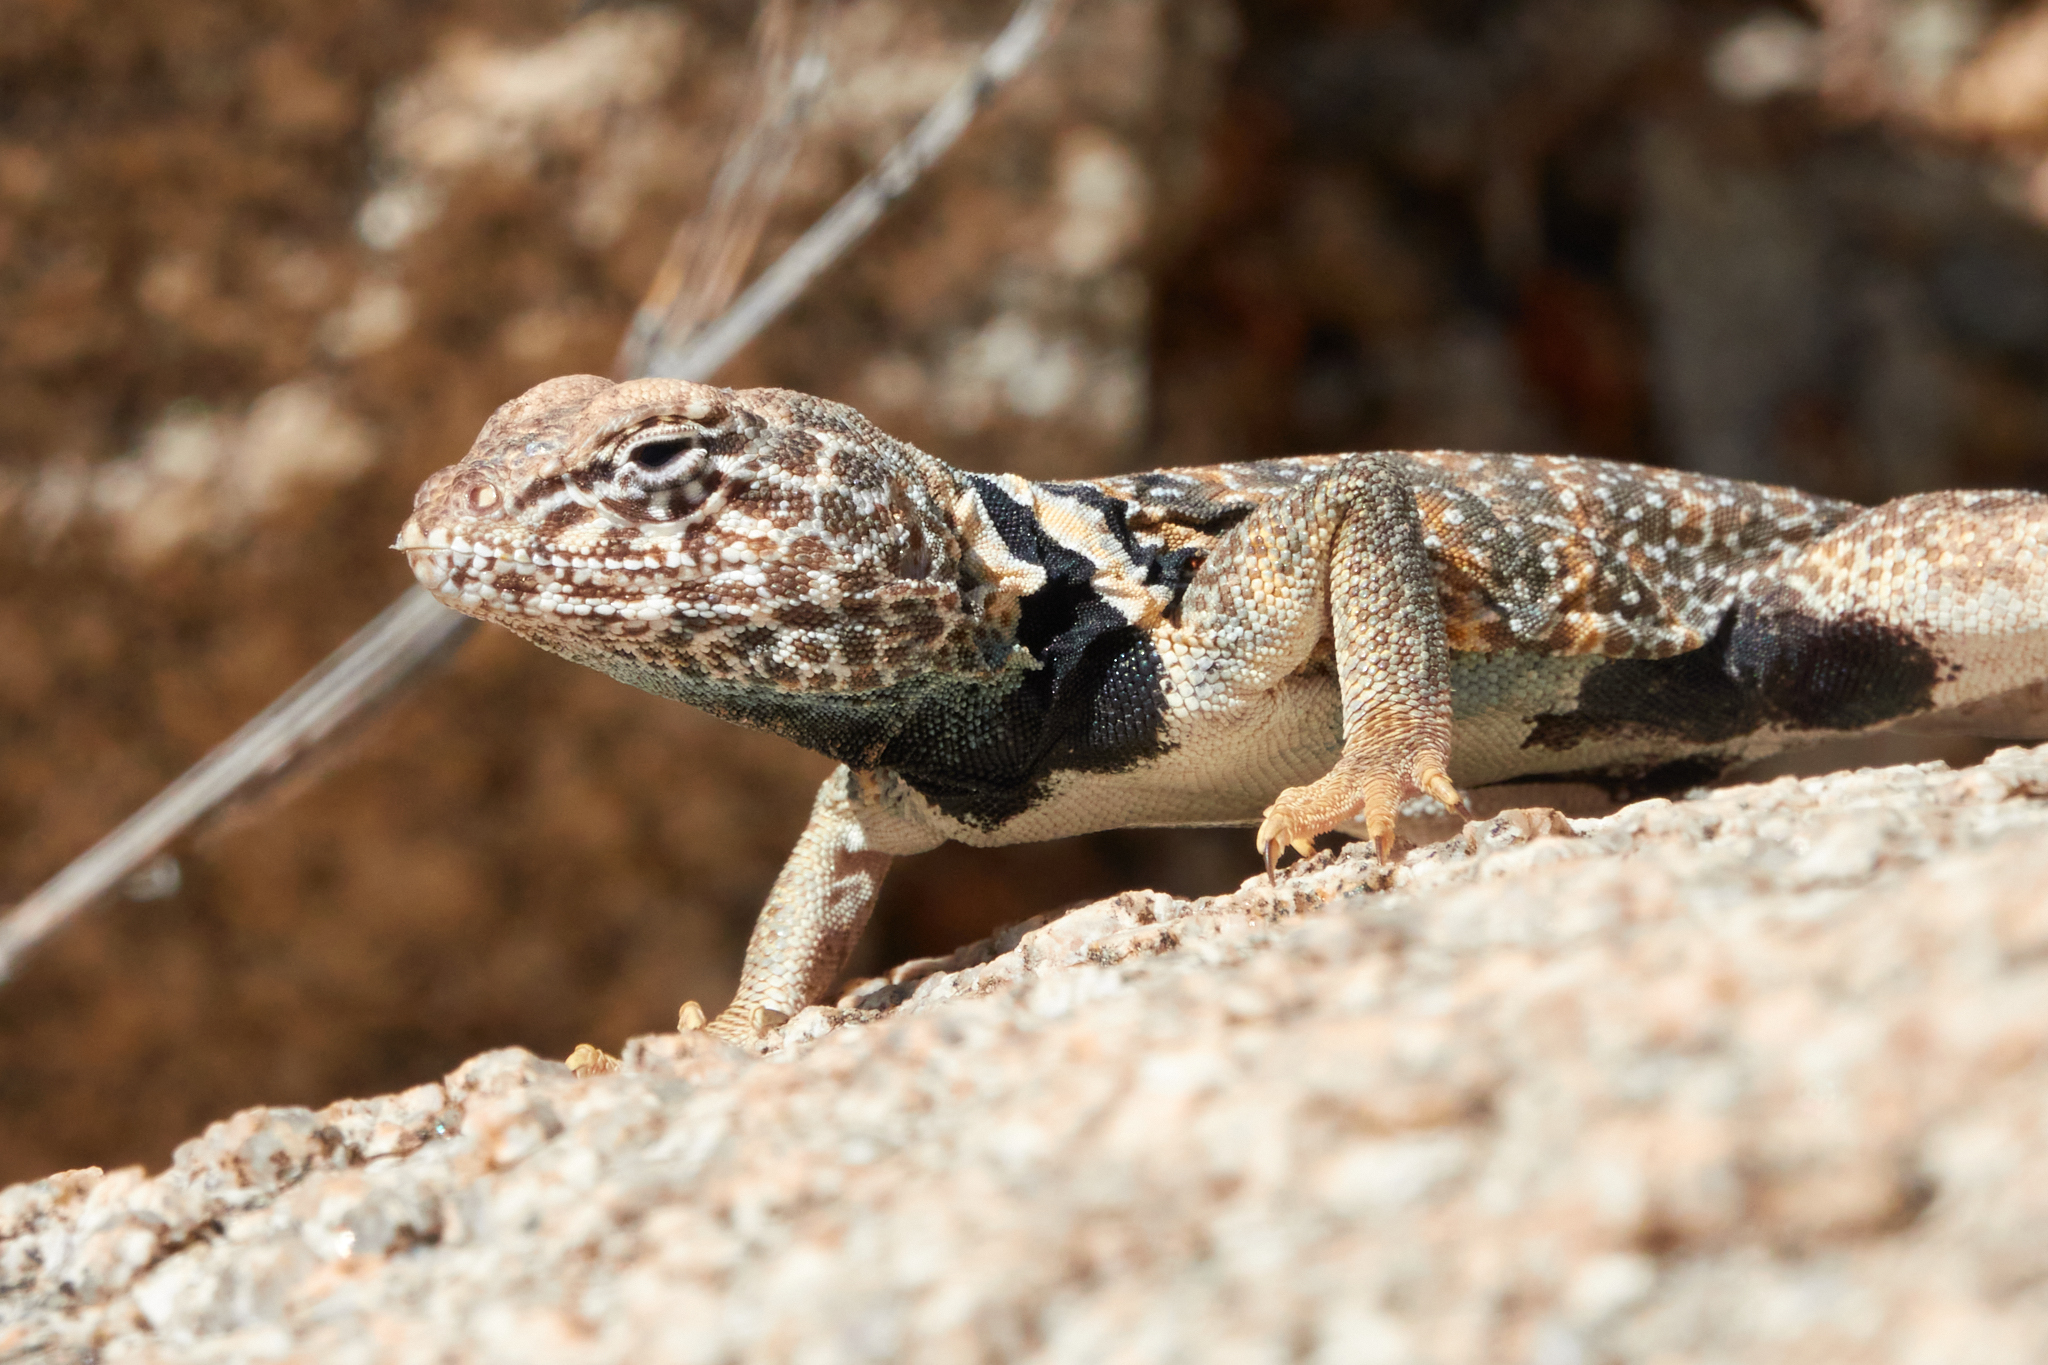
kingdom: Animalia
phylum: Chordata
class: Squamata
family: Crotaphytidae
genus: Crotaphytus
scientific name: Crotaphytus bicinctores
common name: Mojave black-collared lizard
